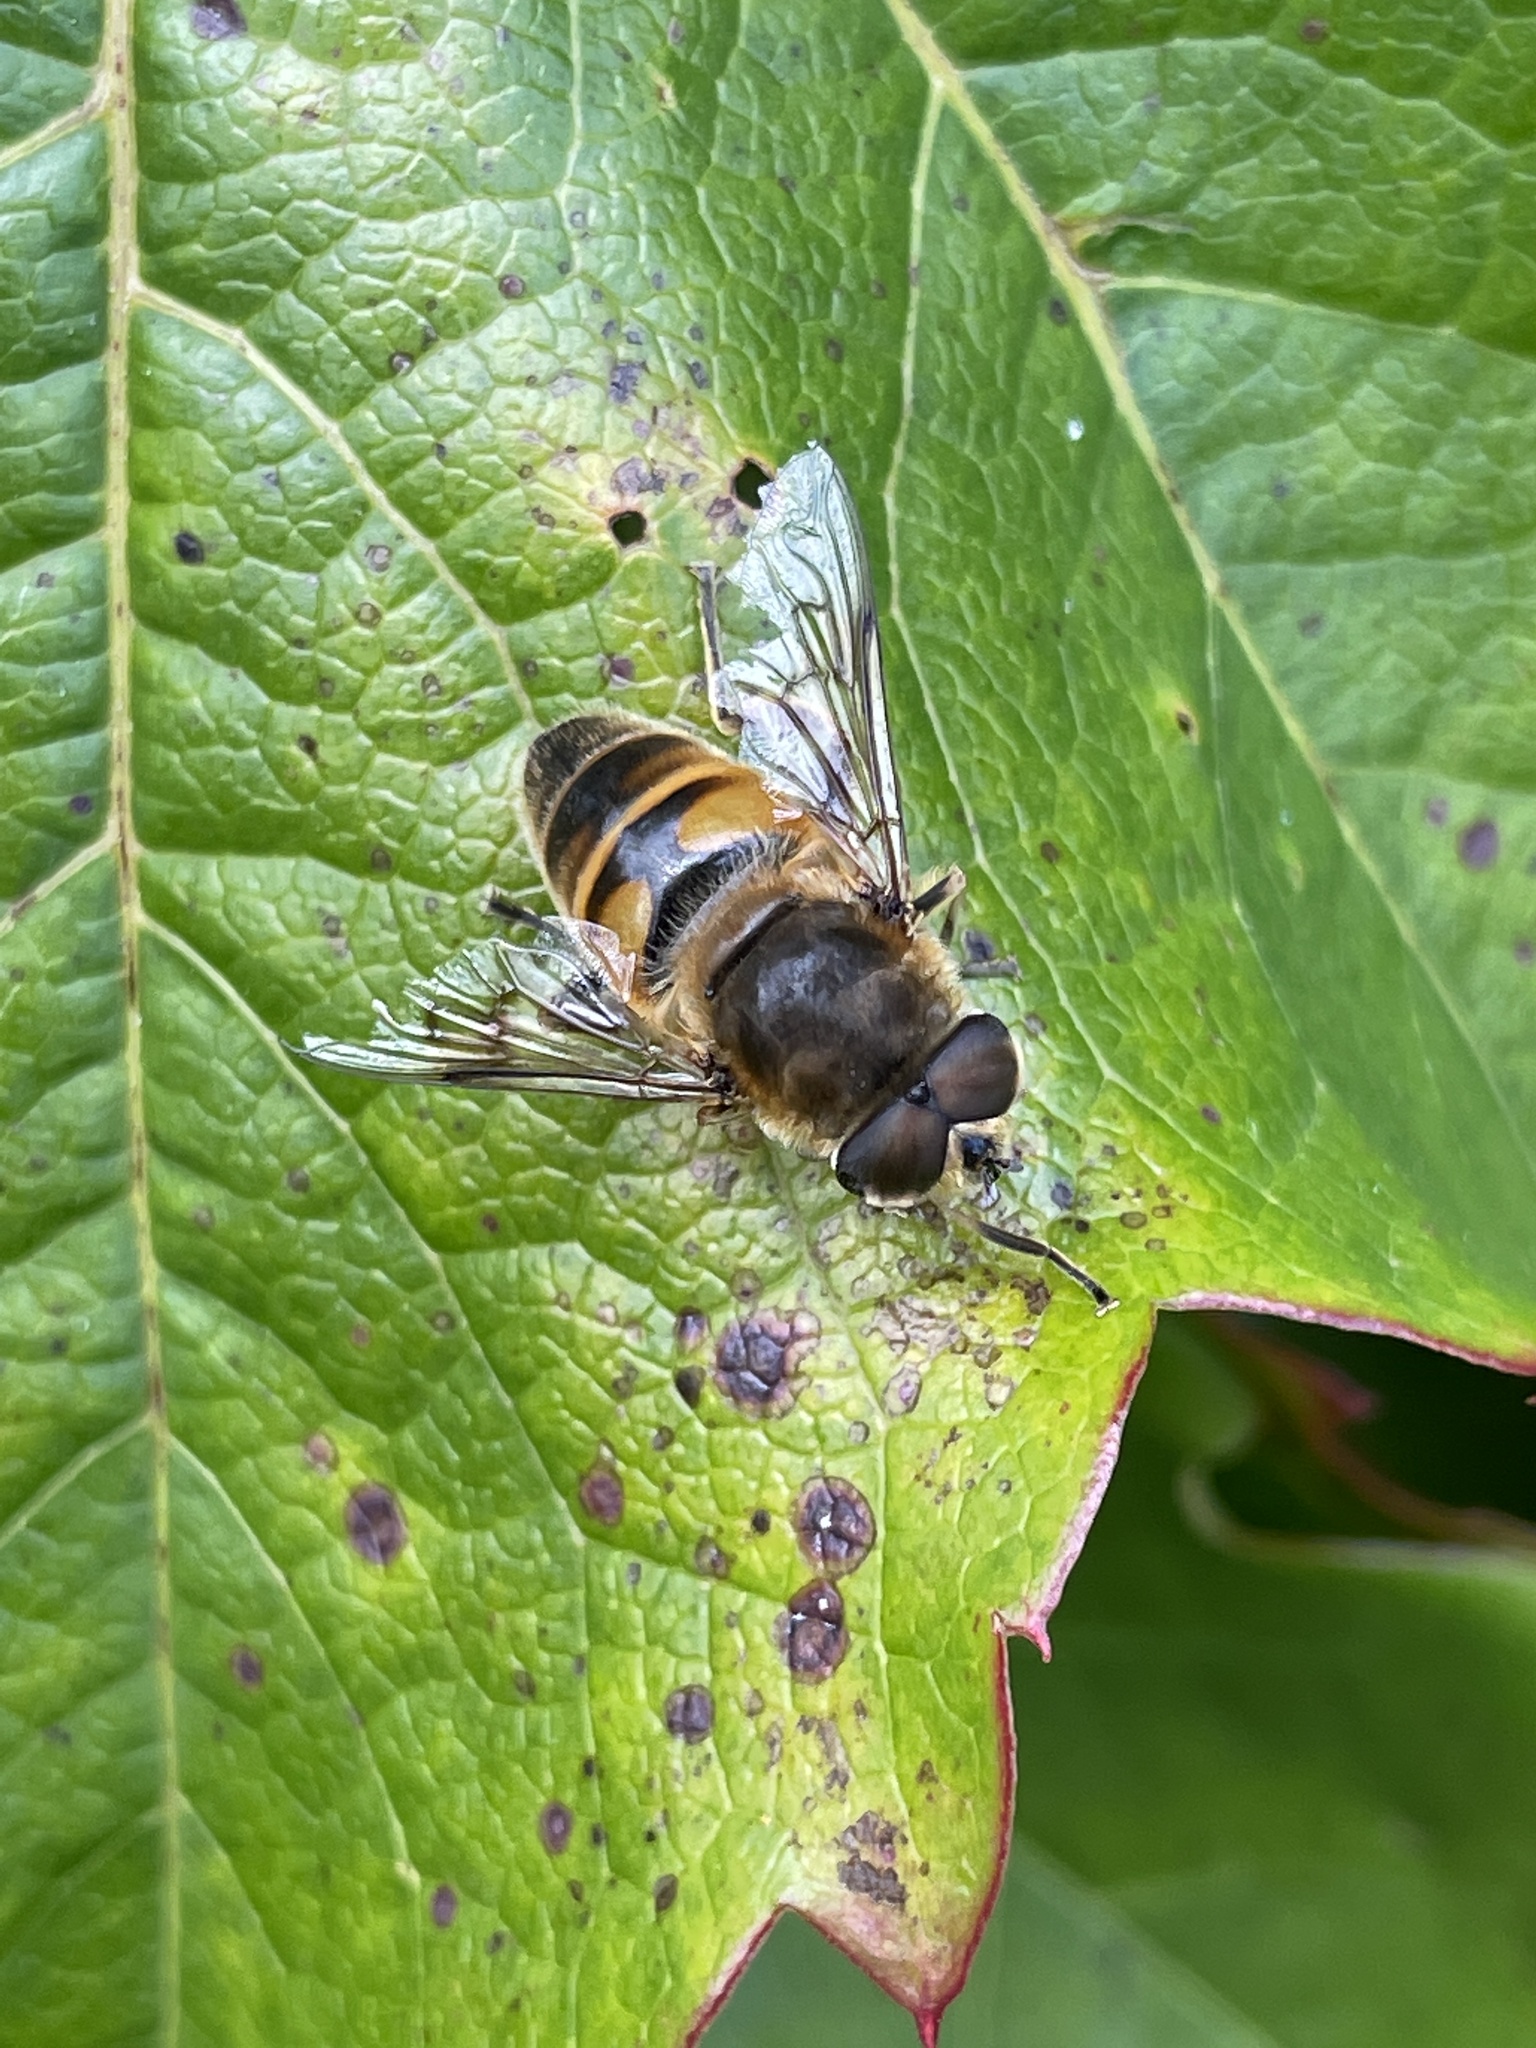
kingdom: Animalia
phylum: Arthropoda
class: Insecta
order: Diptera
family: Syrphidae
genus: Eristalis
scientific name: Eristalis tenax
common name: Drone fly
